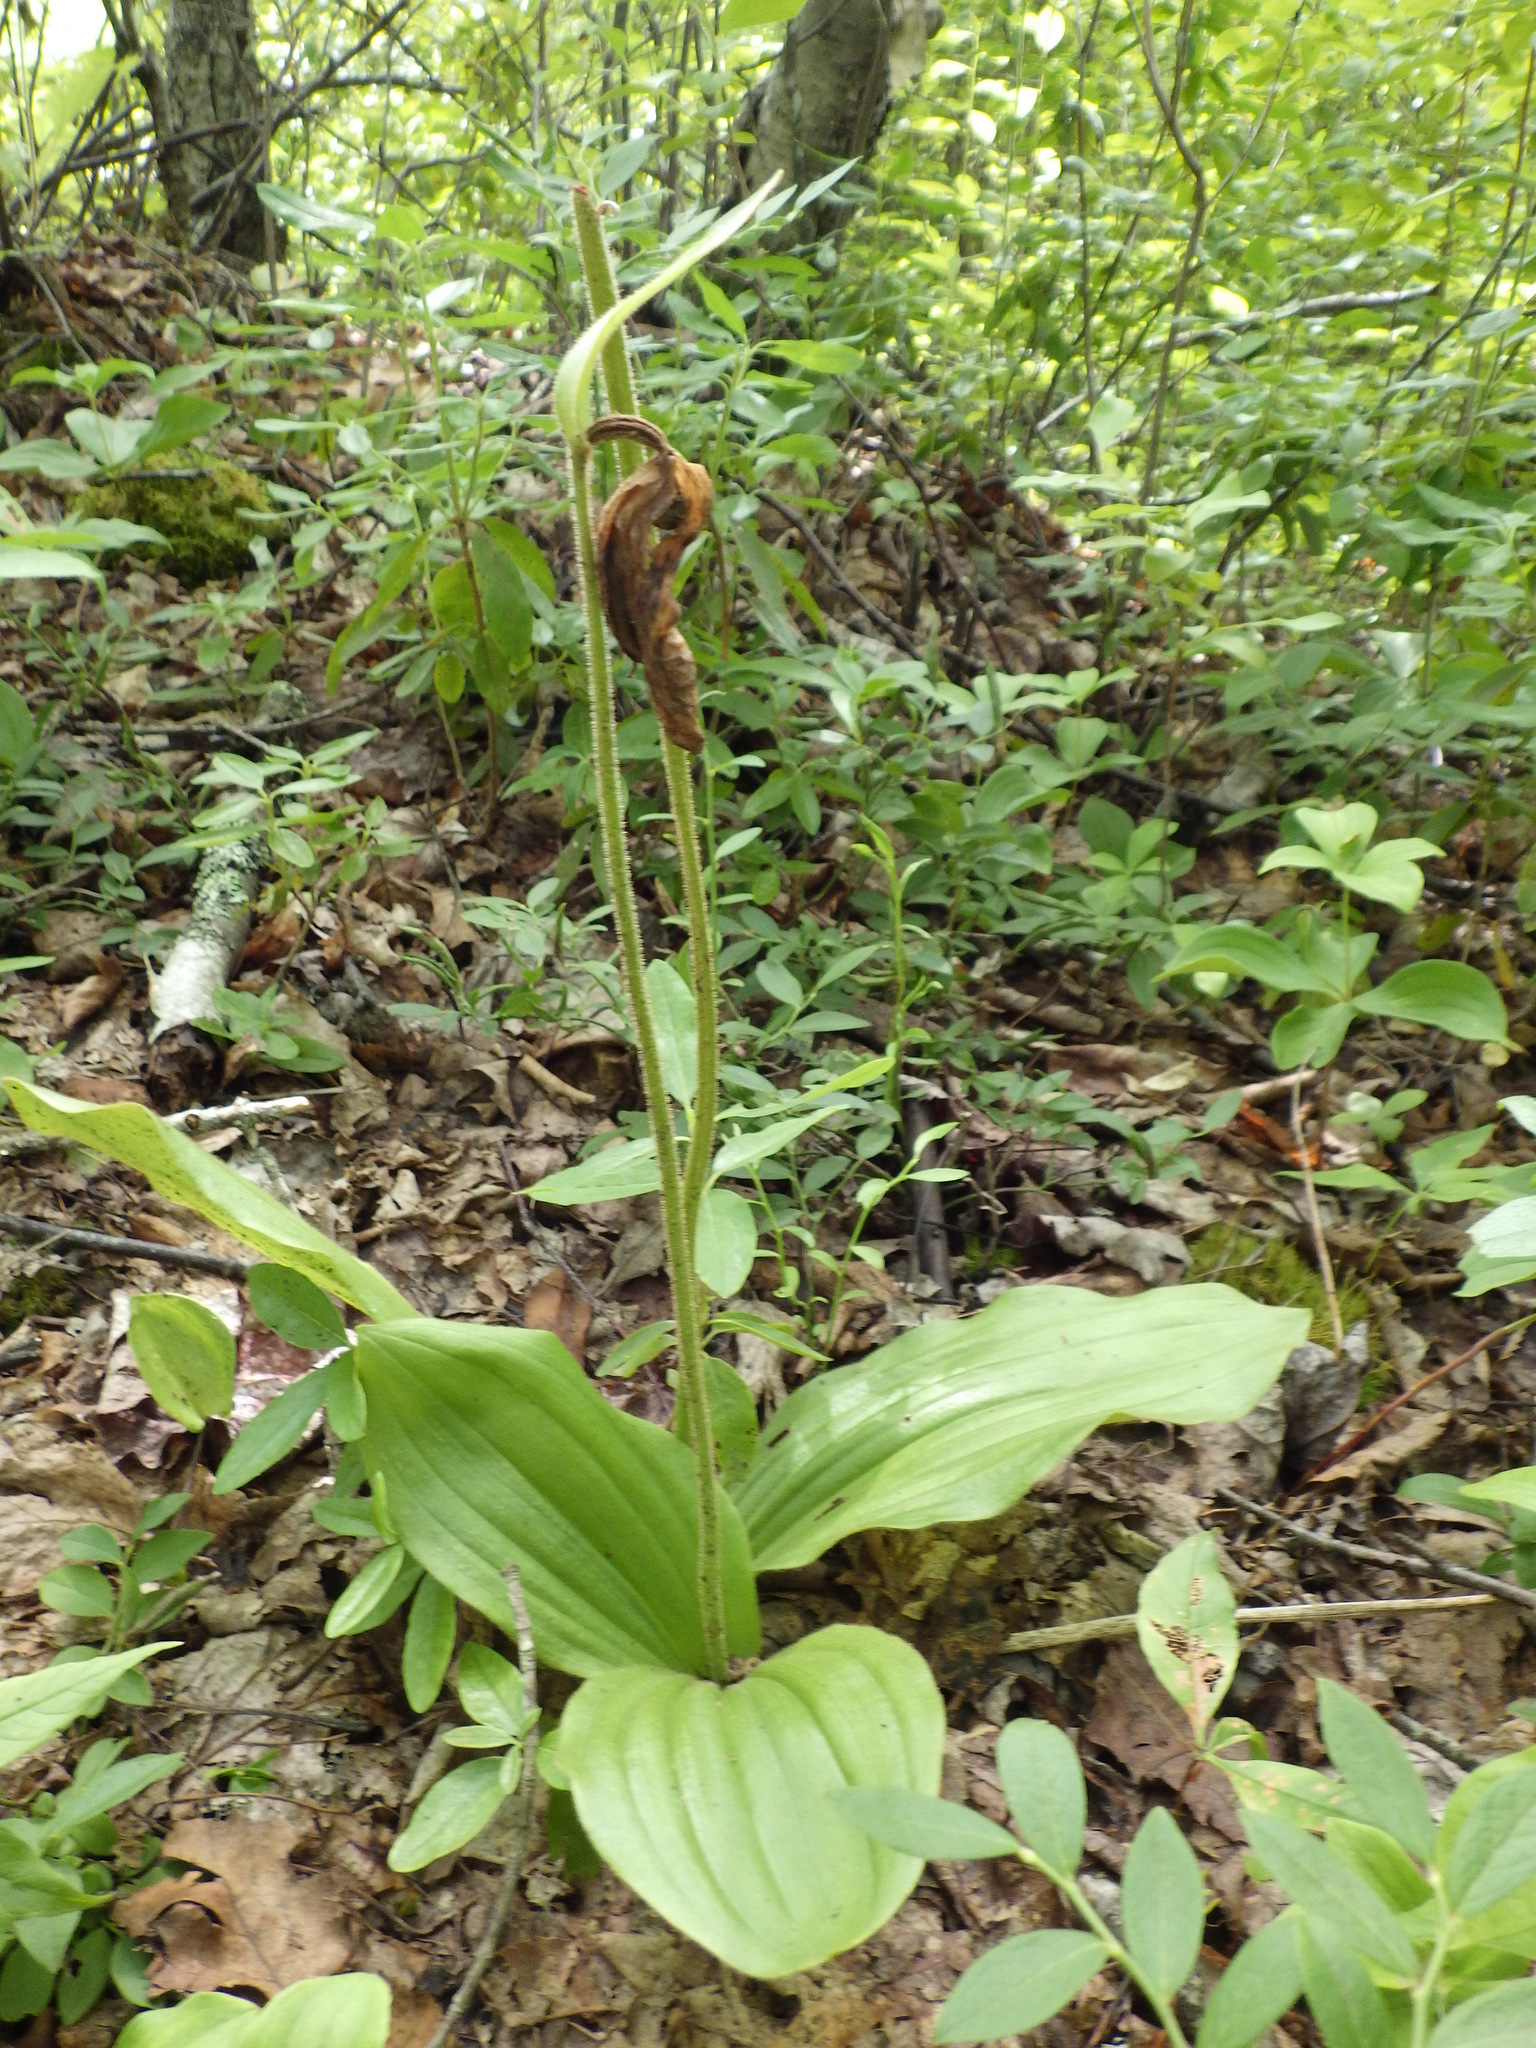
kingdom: Plantae
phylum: Tracheophyta
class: Liliopsida
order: Asparagales
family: Orchidaceae
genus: Cypripedium
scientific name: Cypripedium acaule
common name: Pink lady's-slipper
